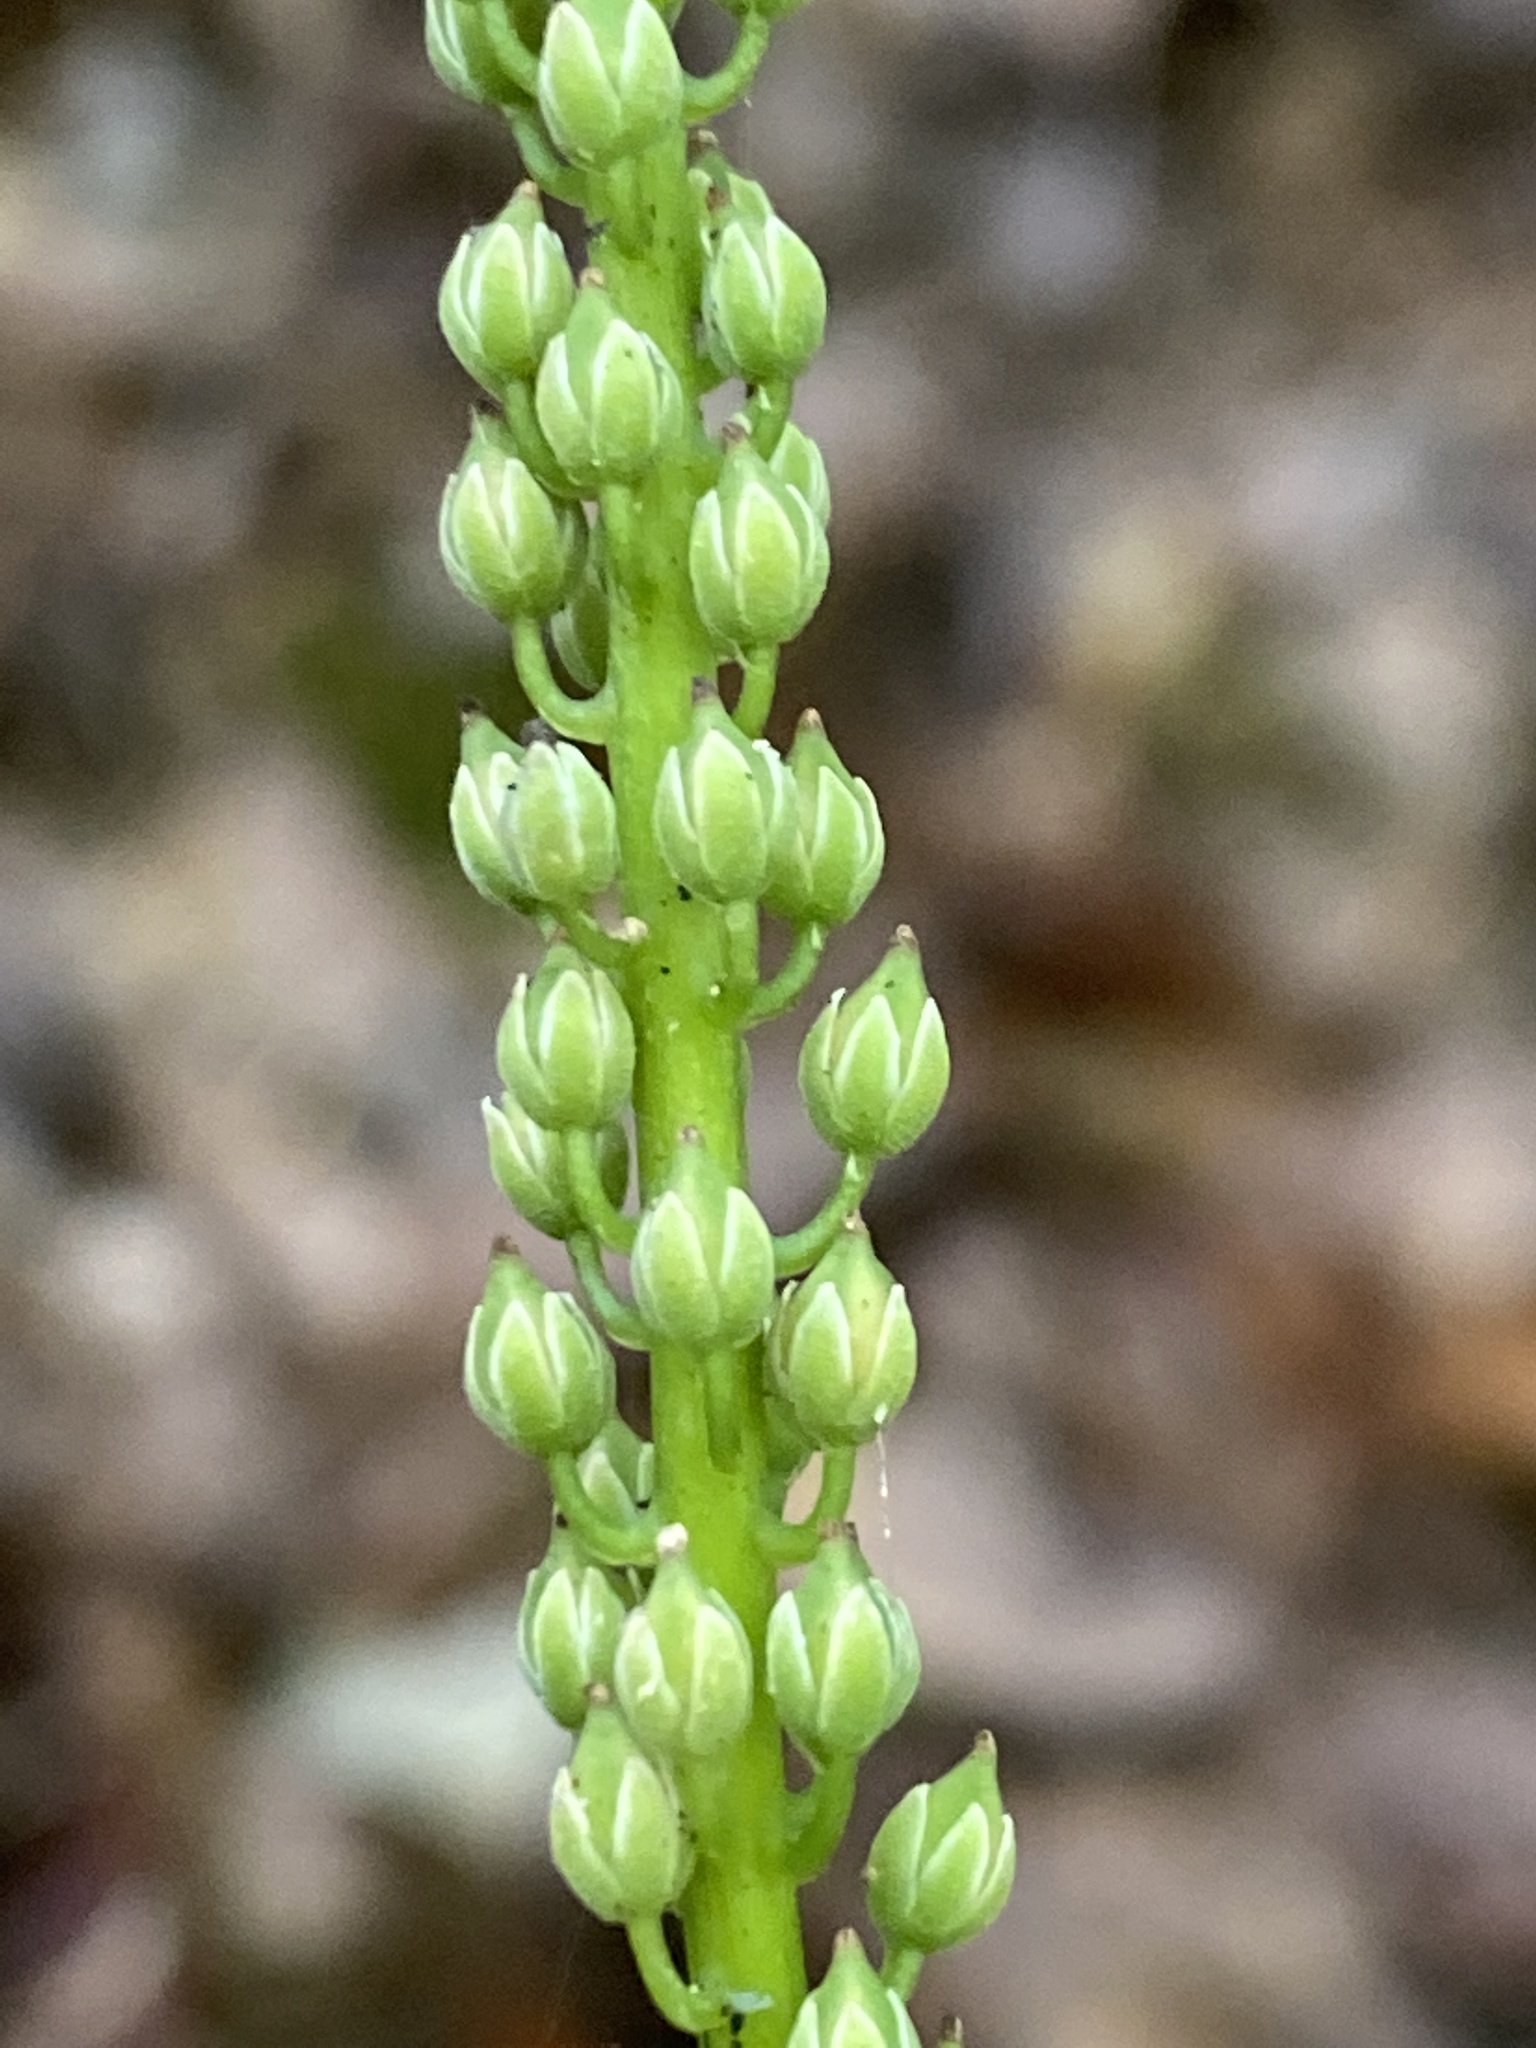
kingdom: Plantae
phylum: Tracheophyta
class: Magnoliopsida
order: Ericales
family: Diapensiaceae
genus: Galax
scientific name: Galax urceolata
